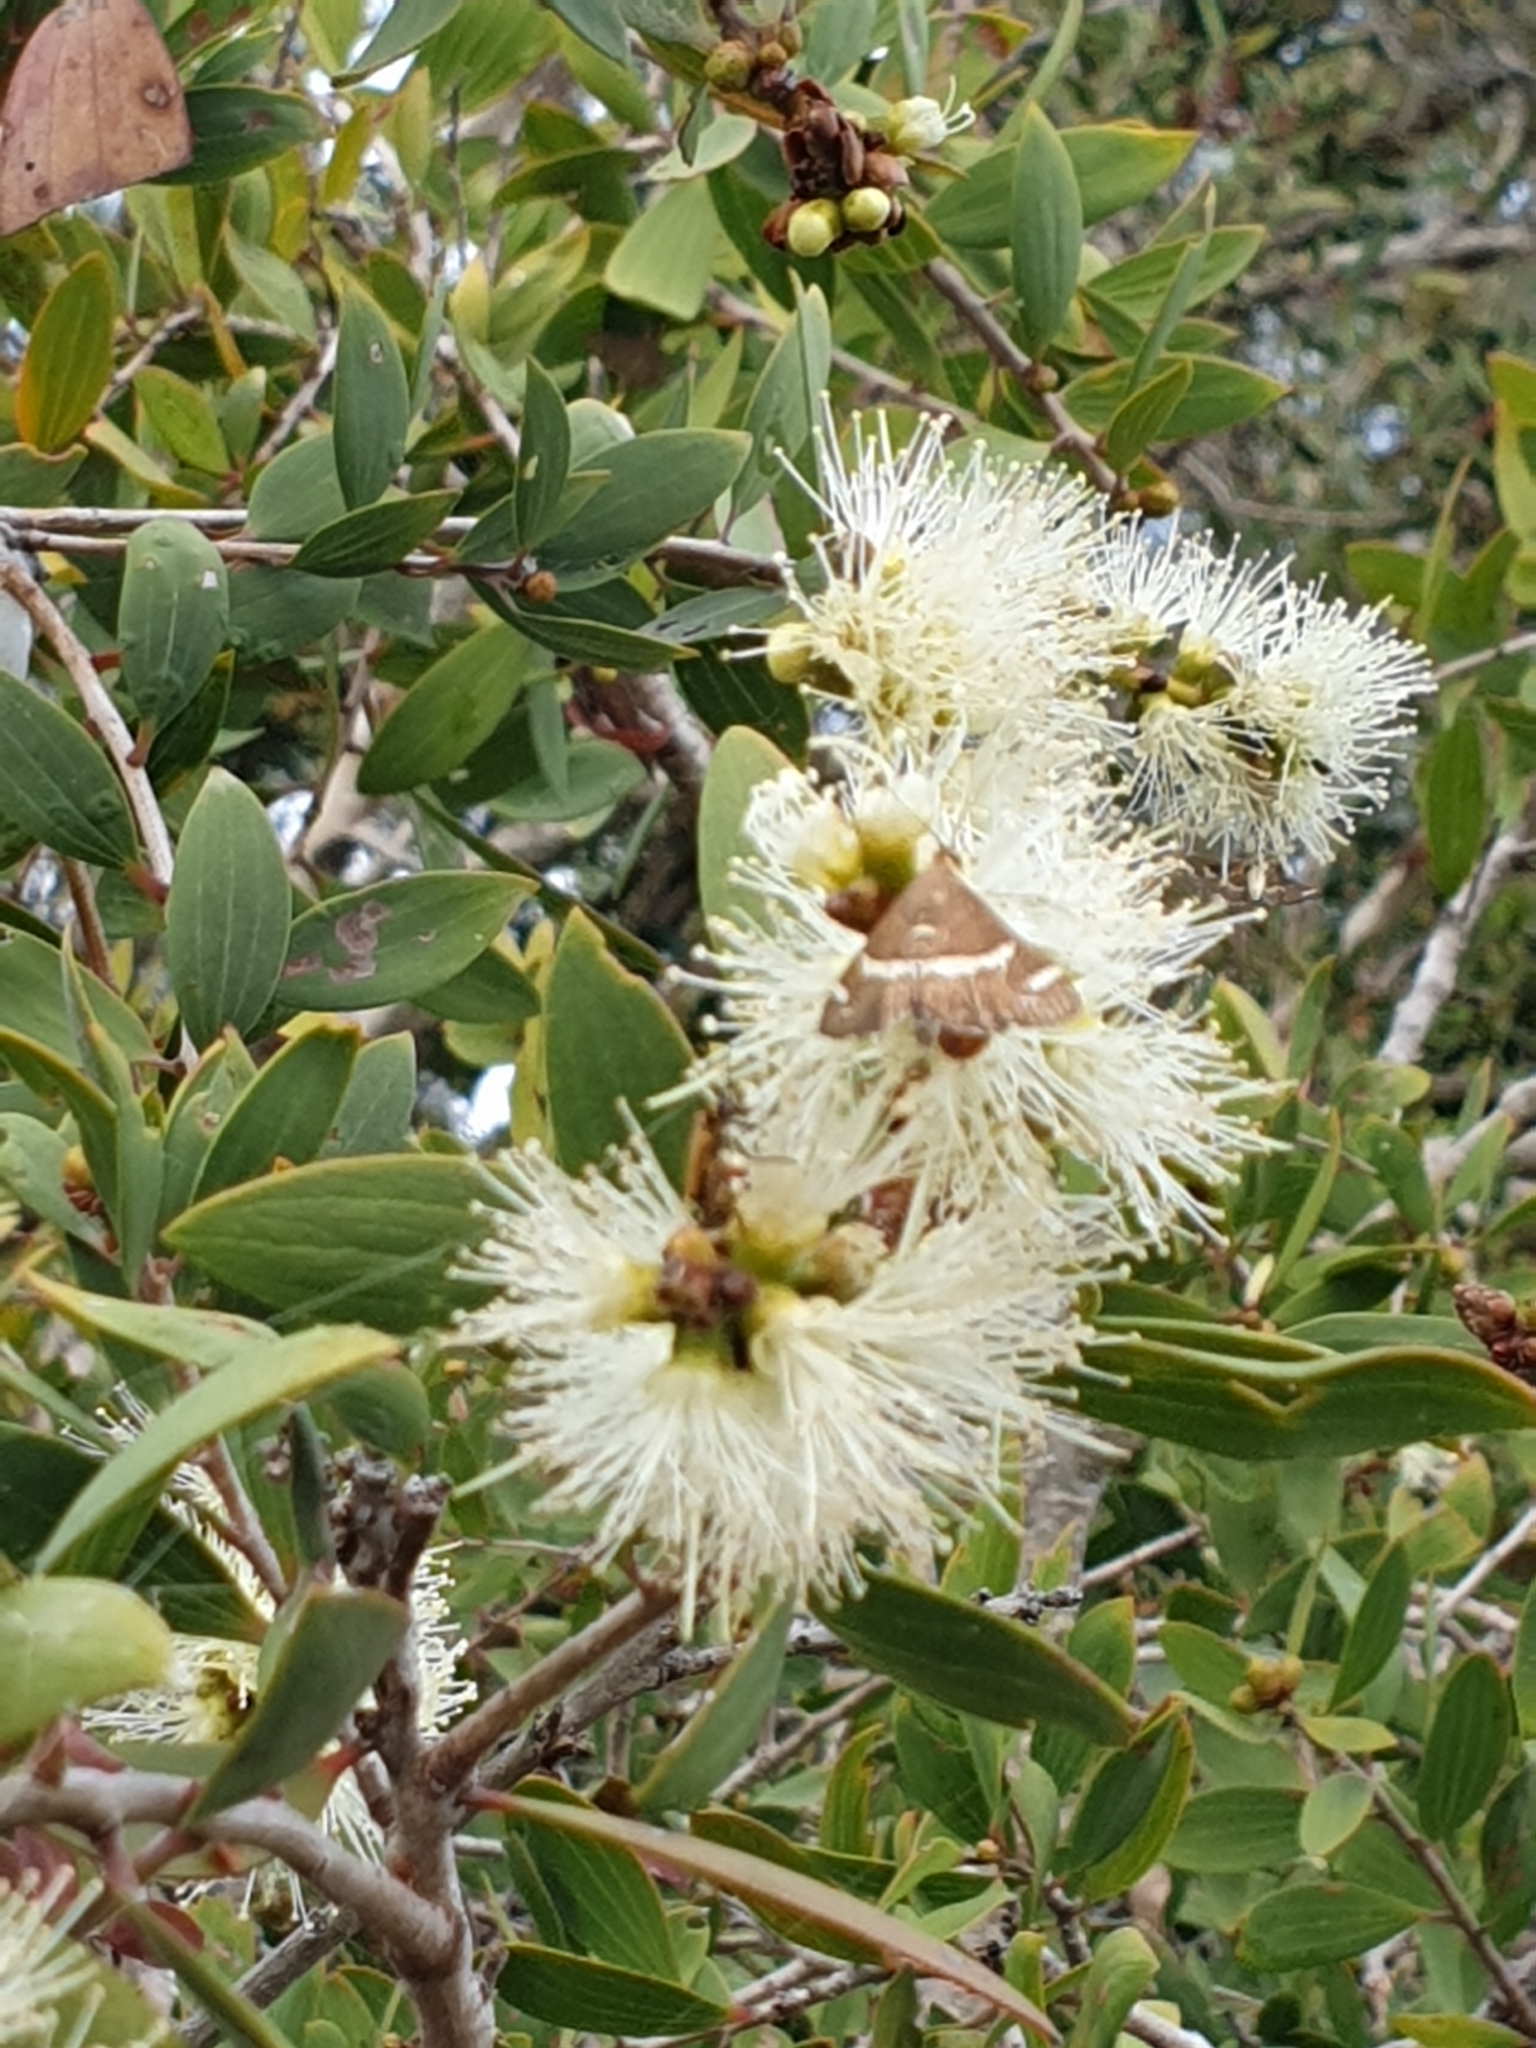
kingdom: Animalia
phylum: Arthropoda
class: Insecta
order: Lepidoptera
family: Crambidae
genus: Spoladea
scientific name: Spoladea recurvalis
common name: Beet webworm moth
